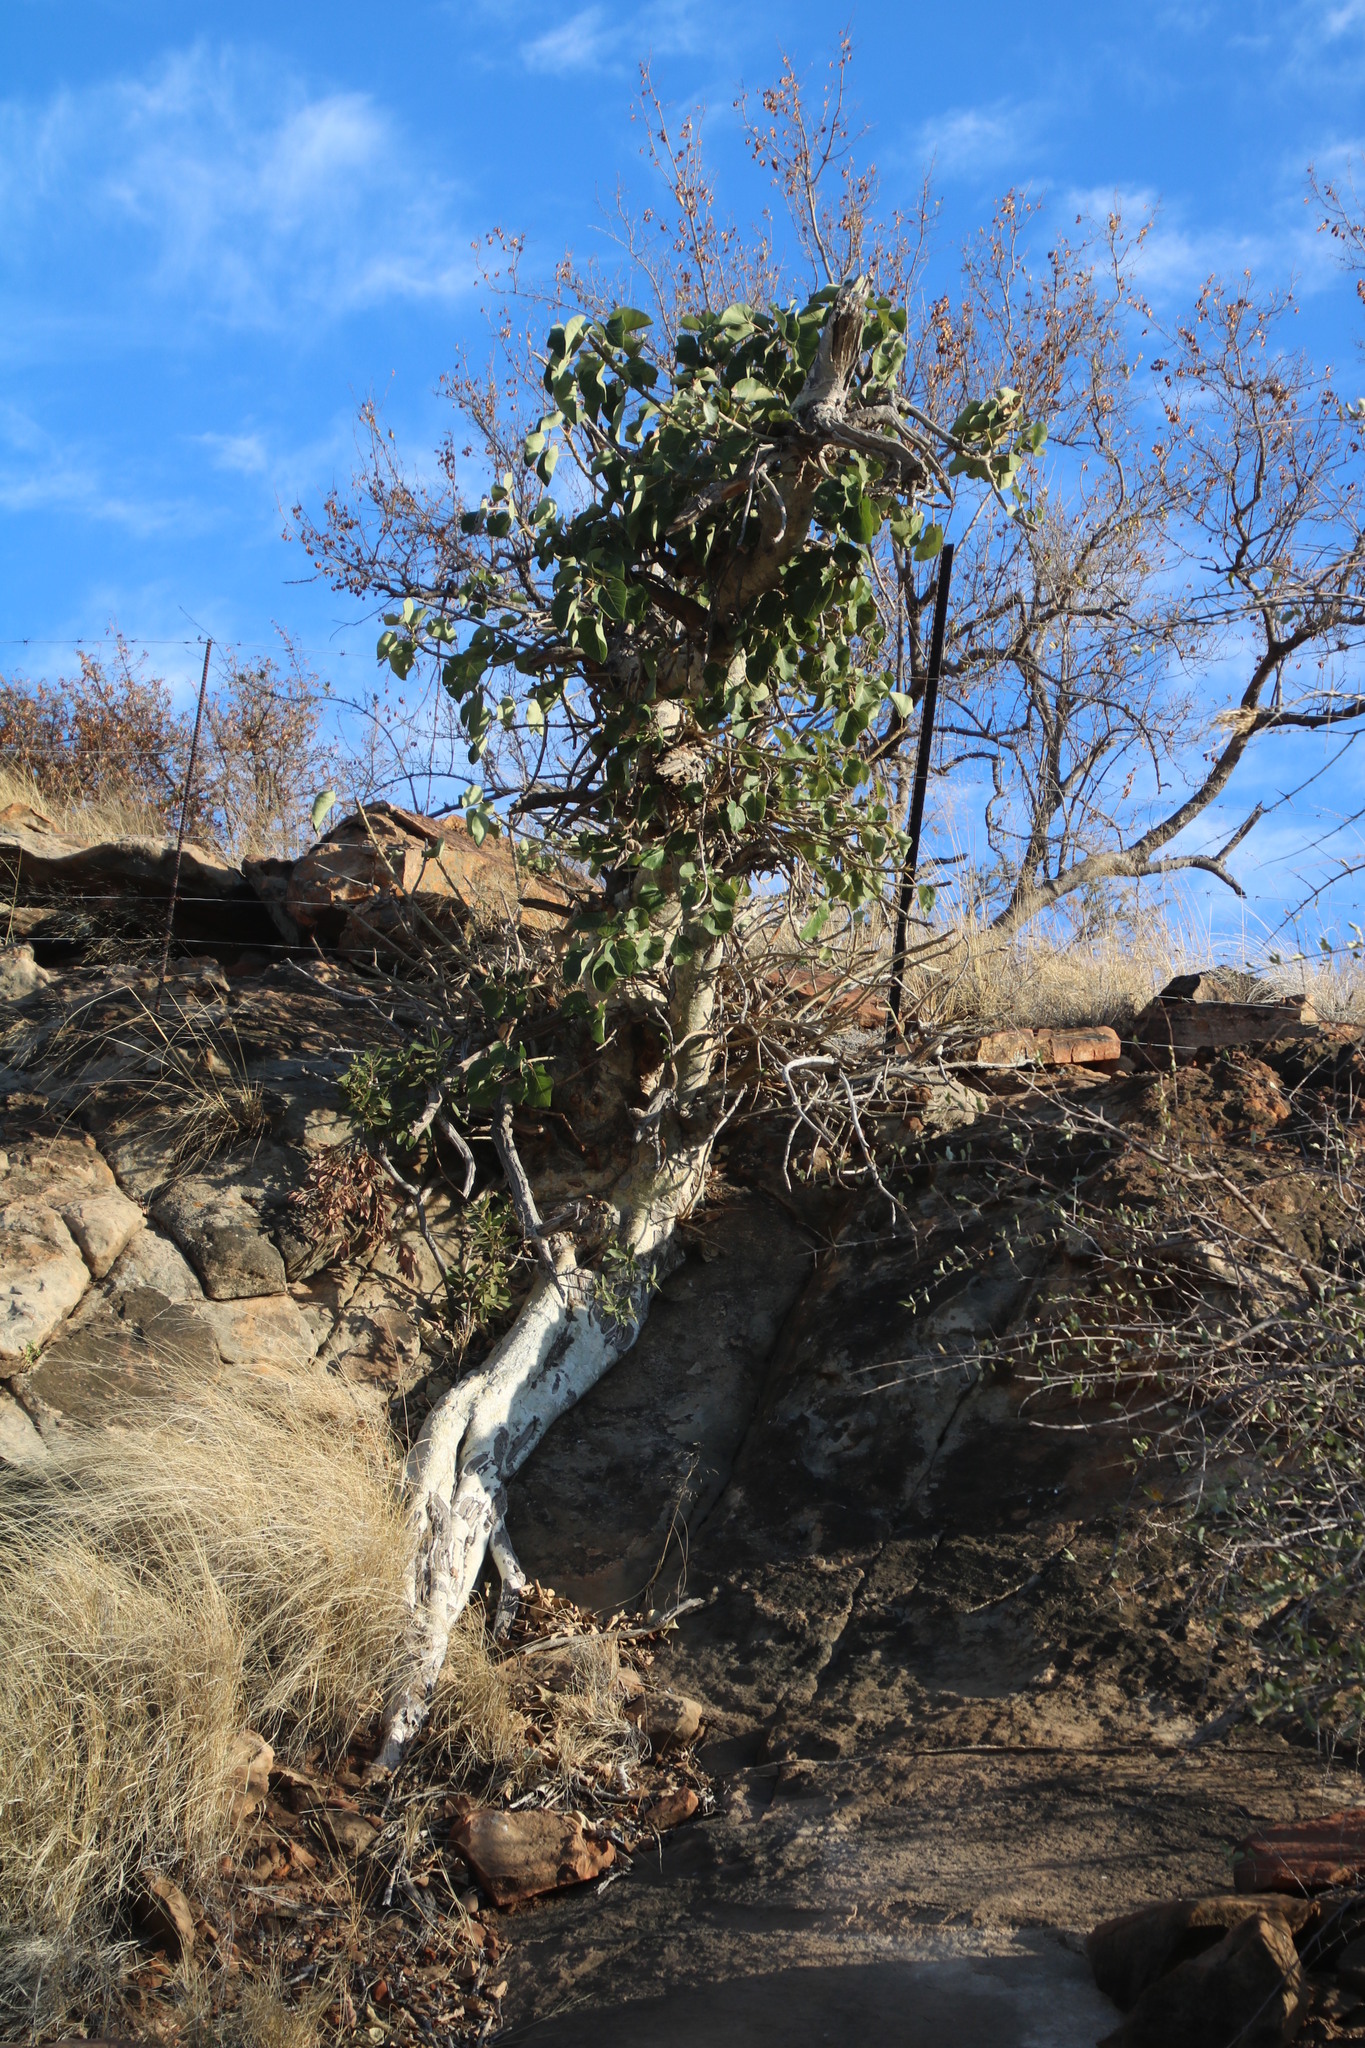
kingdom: Plantae
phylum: Tracheophyta
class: Magnoliopsida
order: Rosales
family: Moraceae
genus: Ficus
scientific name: Ficus abutilifolia
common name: Large-leaved rock fig
